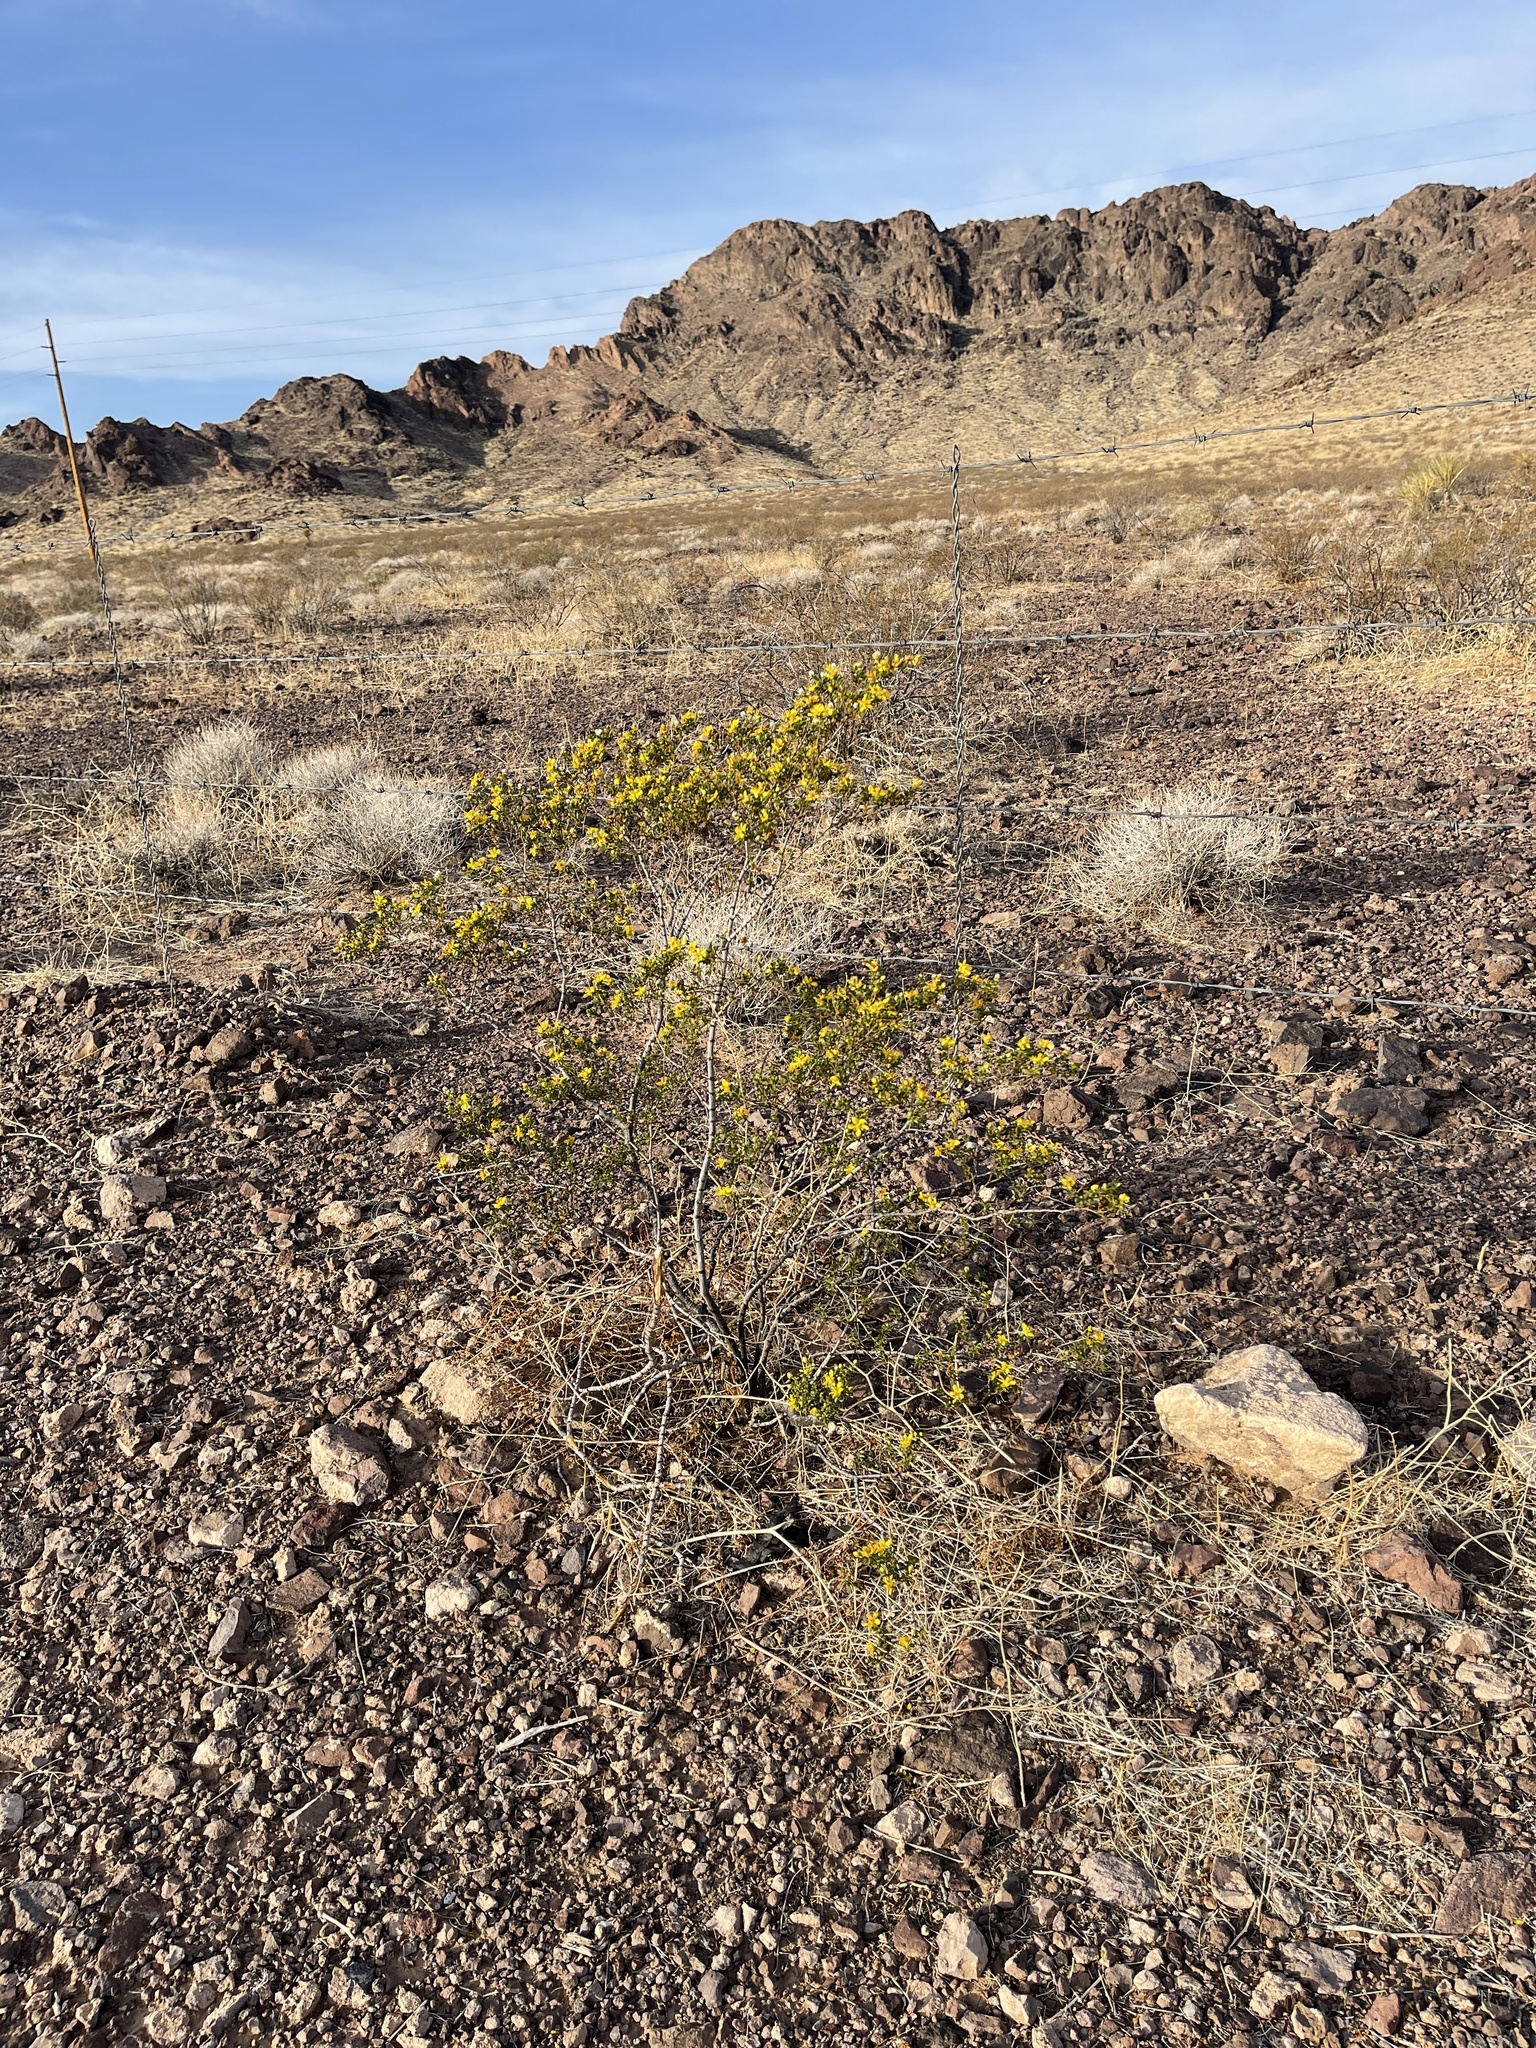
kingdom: Plantae
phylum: Tracheophyta
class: Magnoliopsida
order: Zygophyllales
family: Zygophyllaceae
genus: Larrea
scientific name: Larrea tridentata
